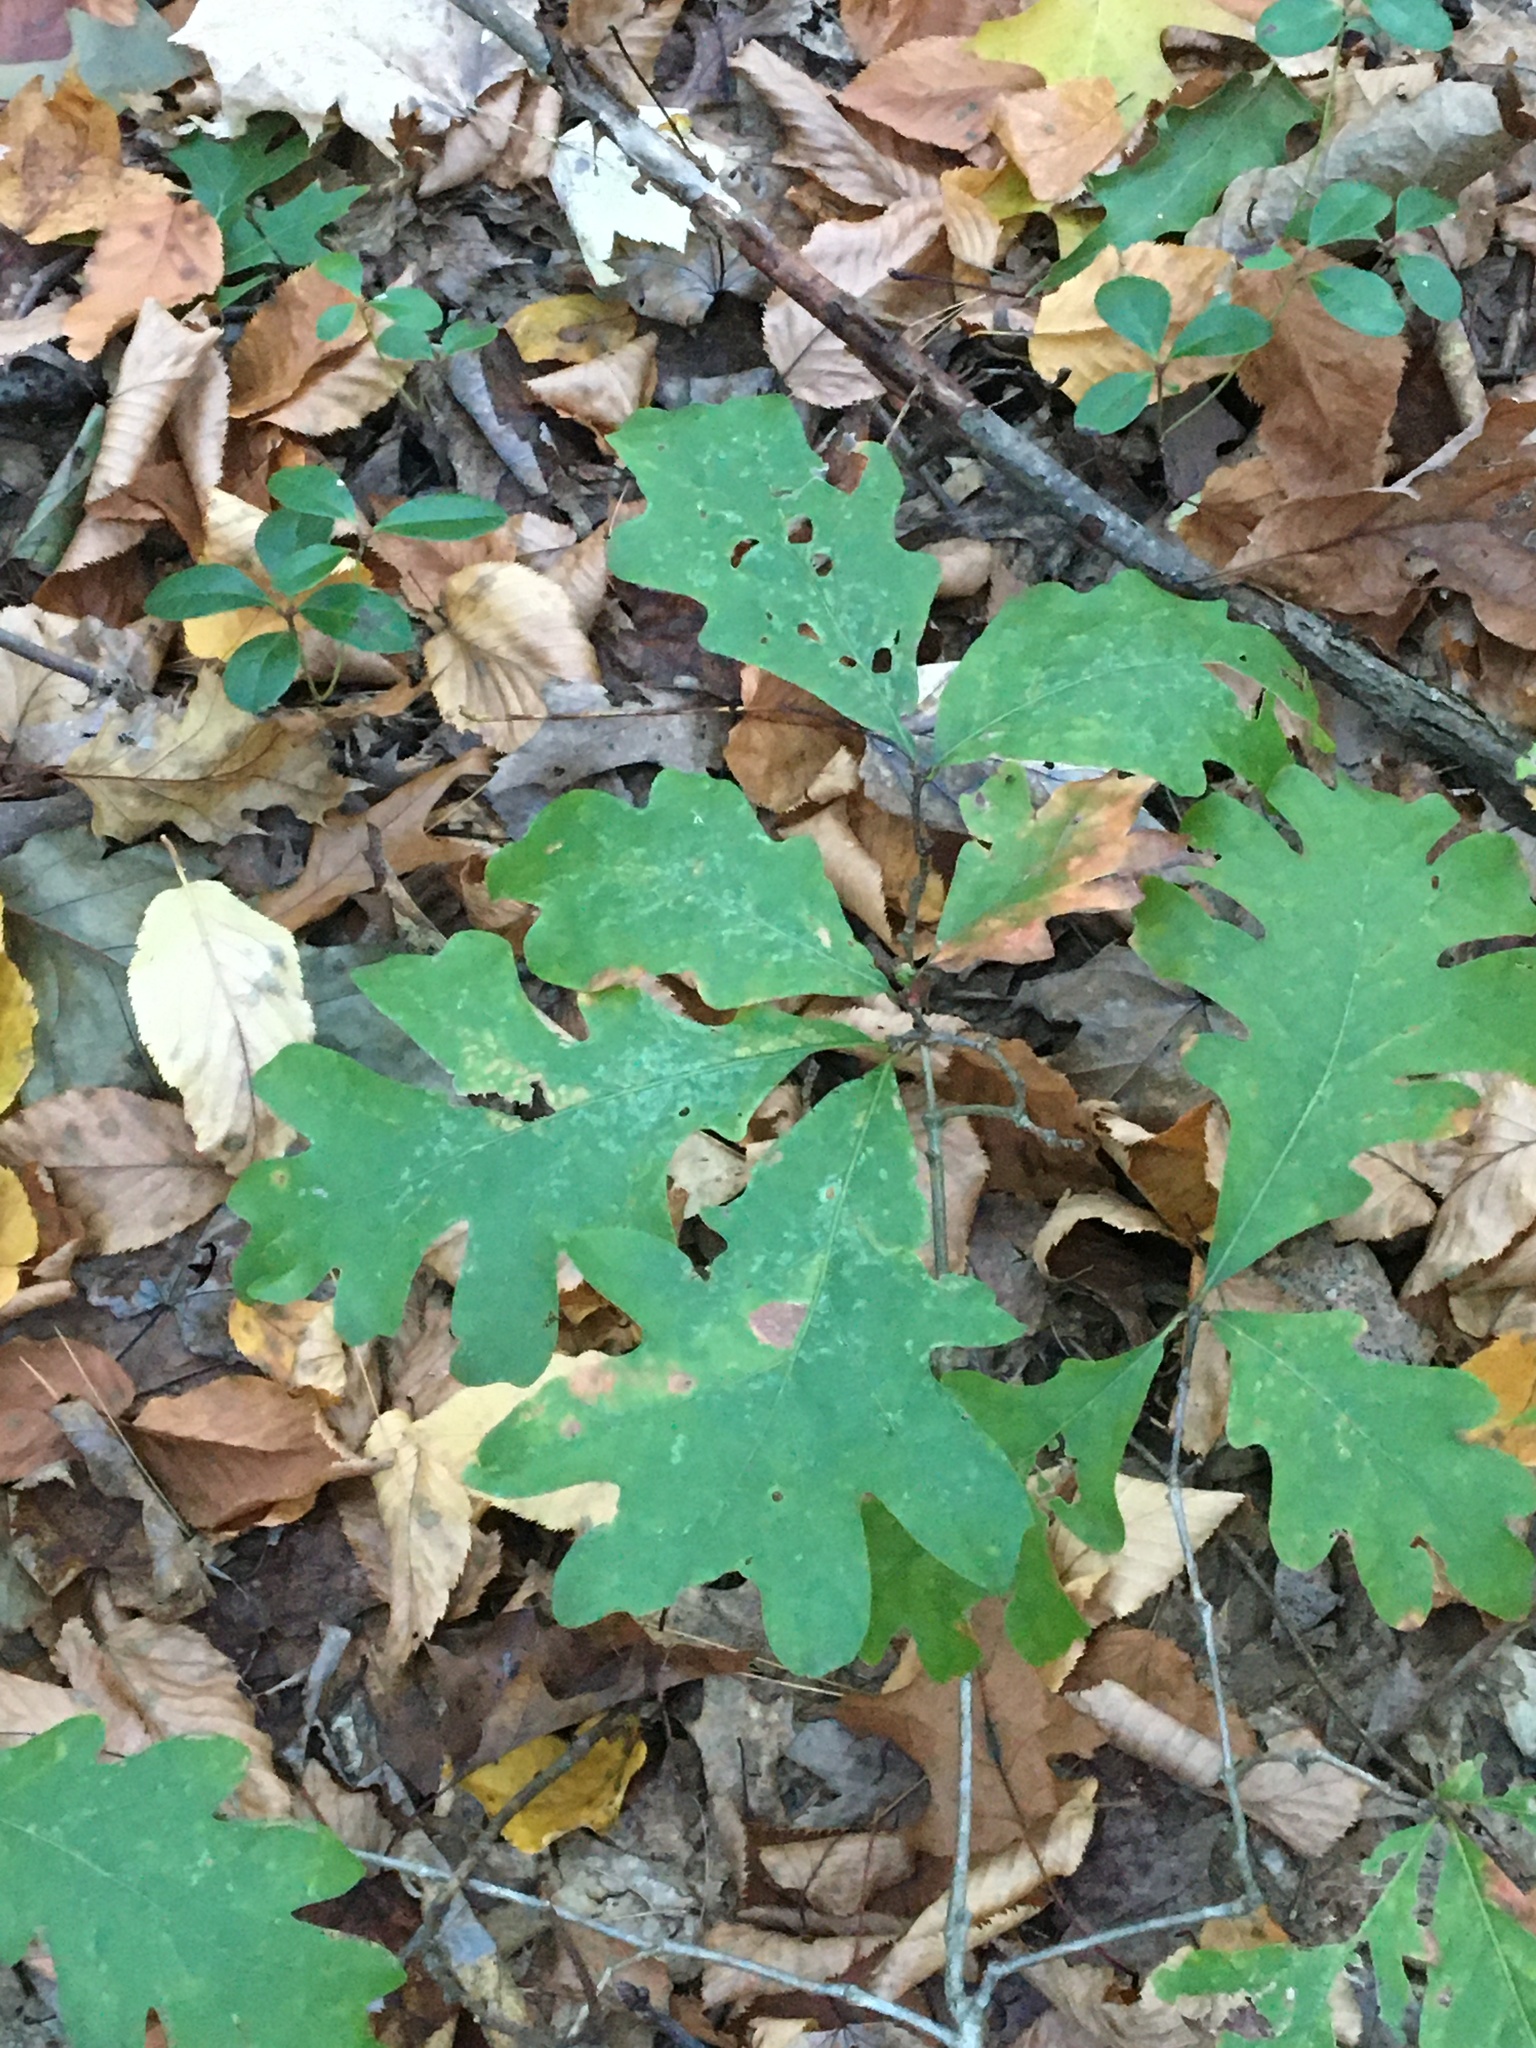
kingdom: Plantae
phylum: Tracheophyta
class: Magnoliopsida
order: Fagales
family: Fagaceae
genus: Quercus
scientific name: Quercus alba
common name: White oak
